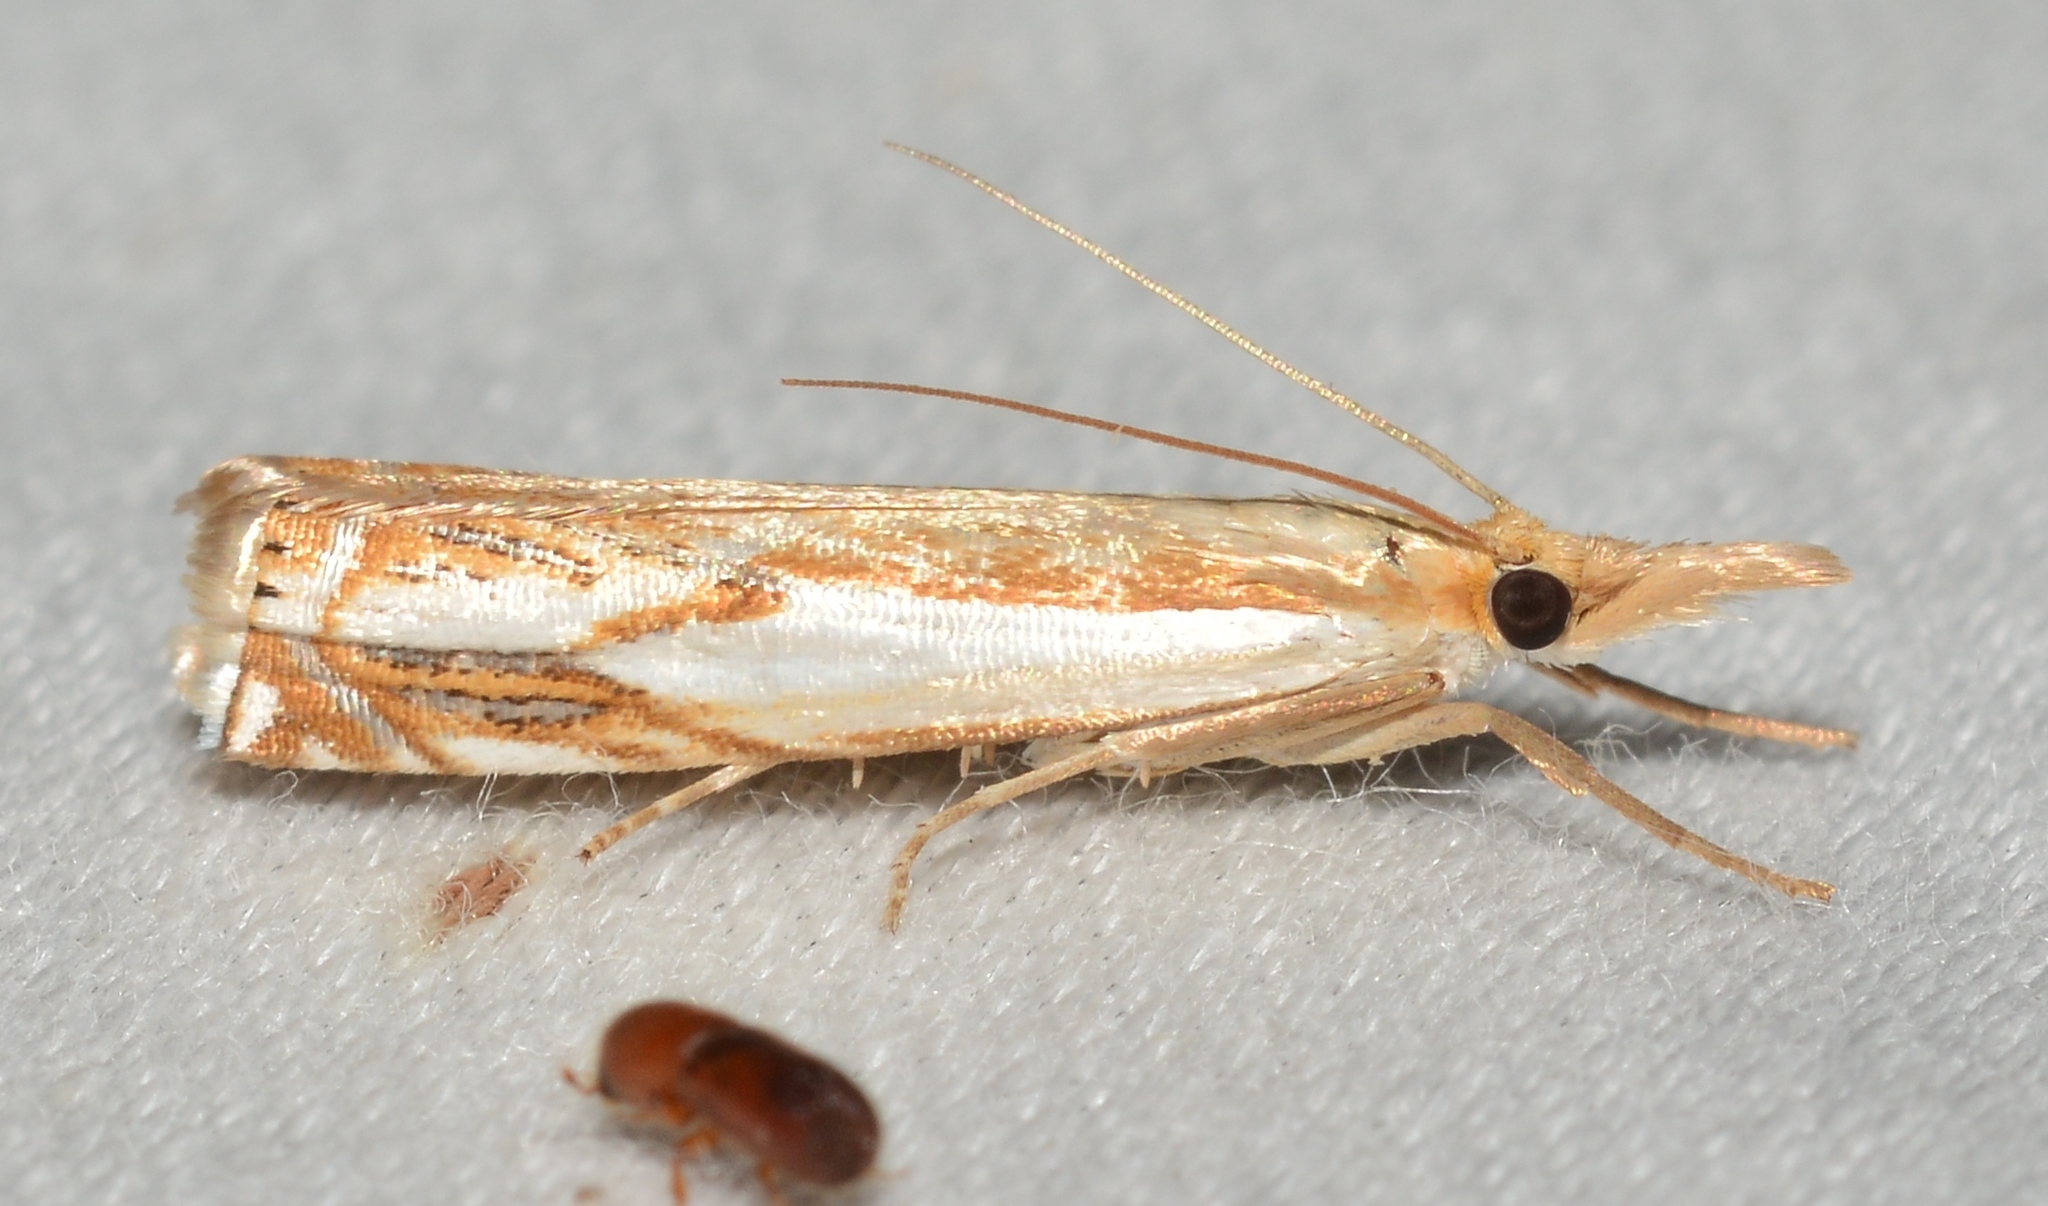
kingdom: Animalia
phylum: Arthropoda
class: Insecta
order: Lepidoptera
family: Crambidae
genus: Crambus
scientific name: Crambus agitatellus
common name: Double-banded grass-veneer
